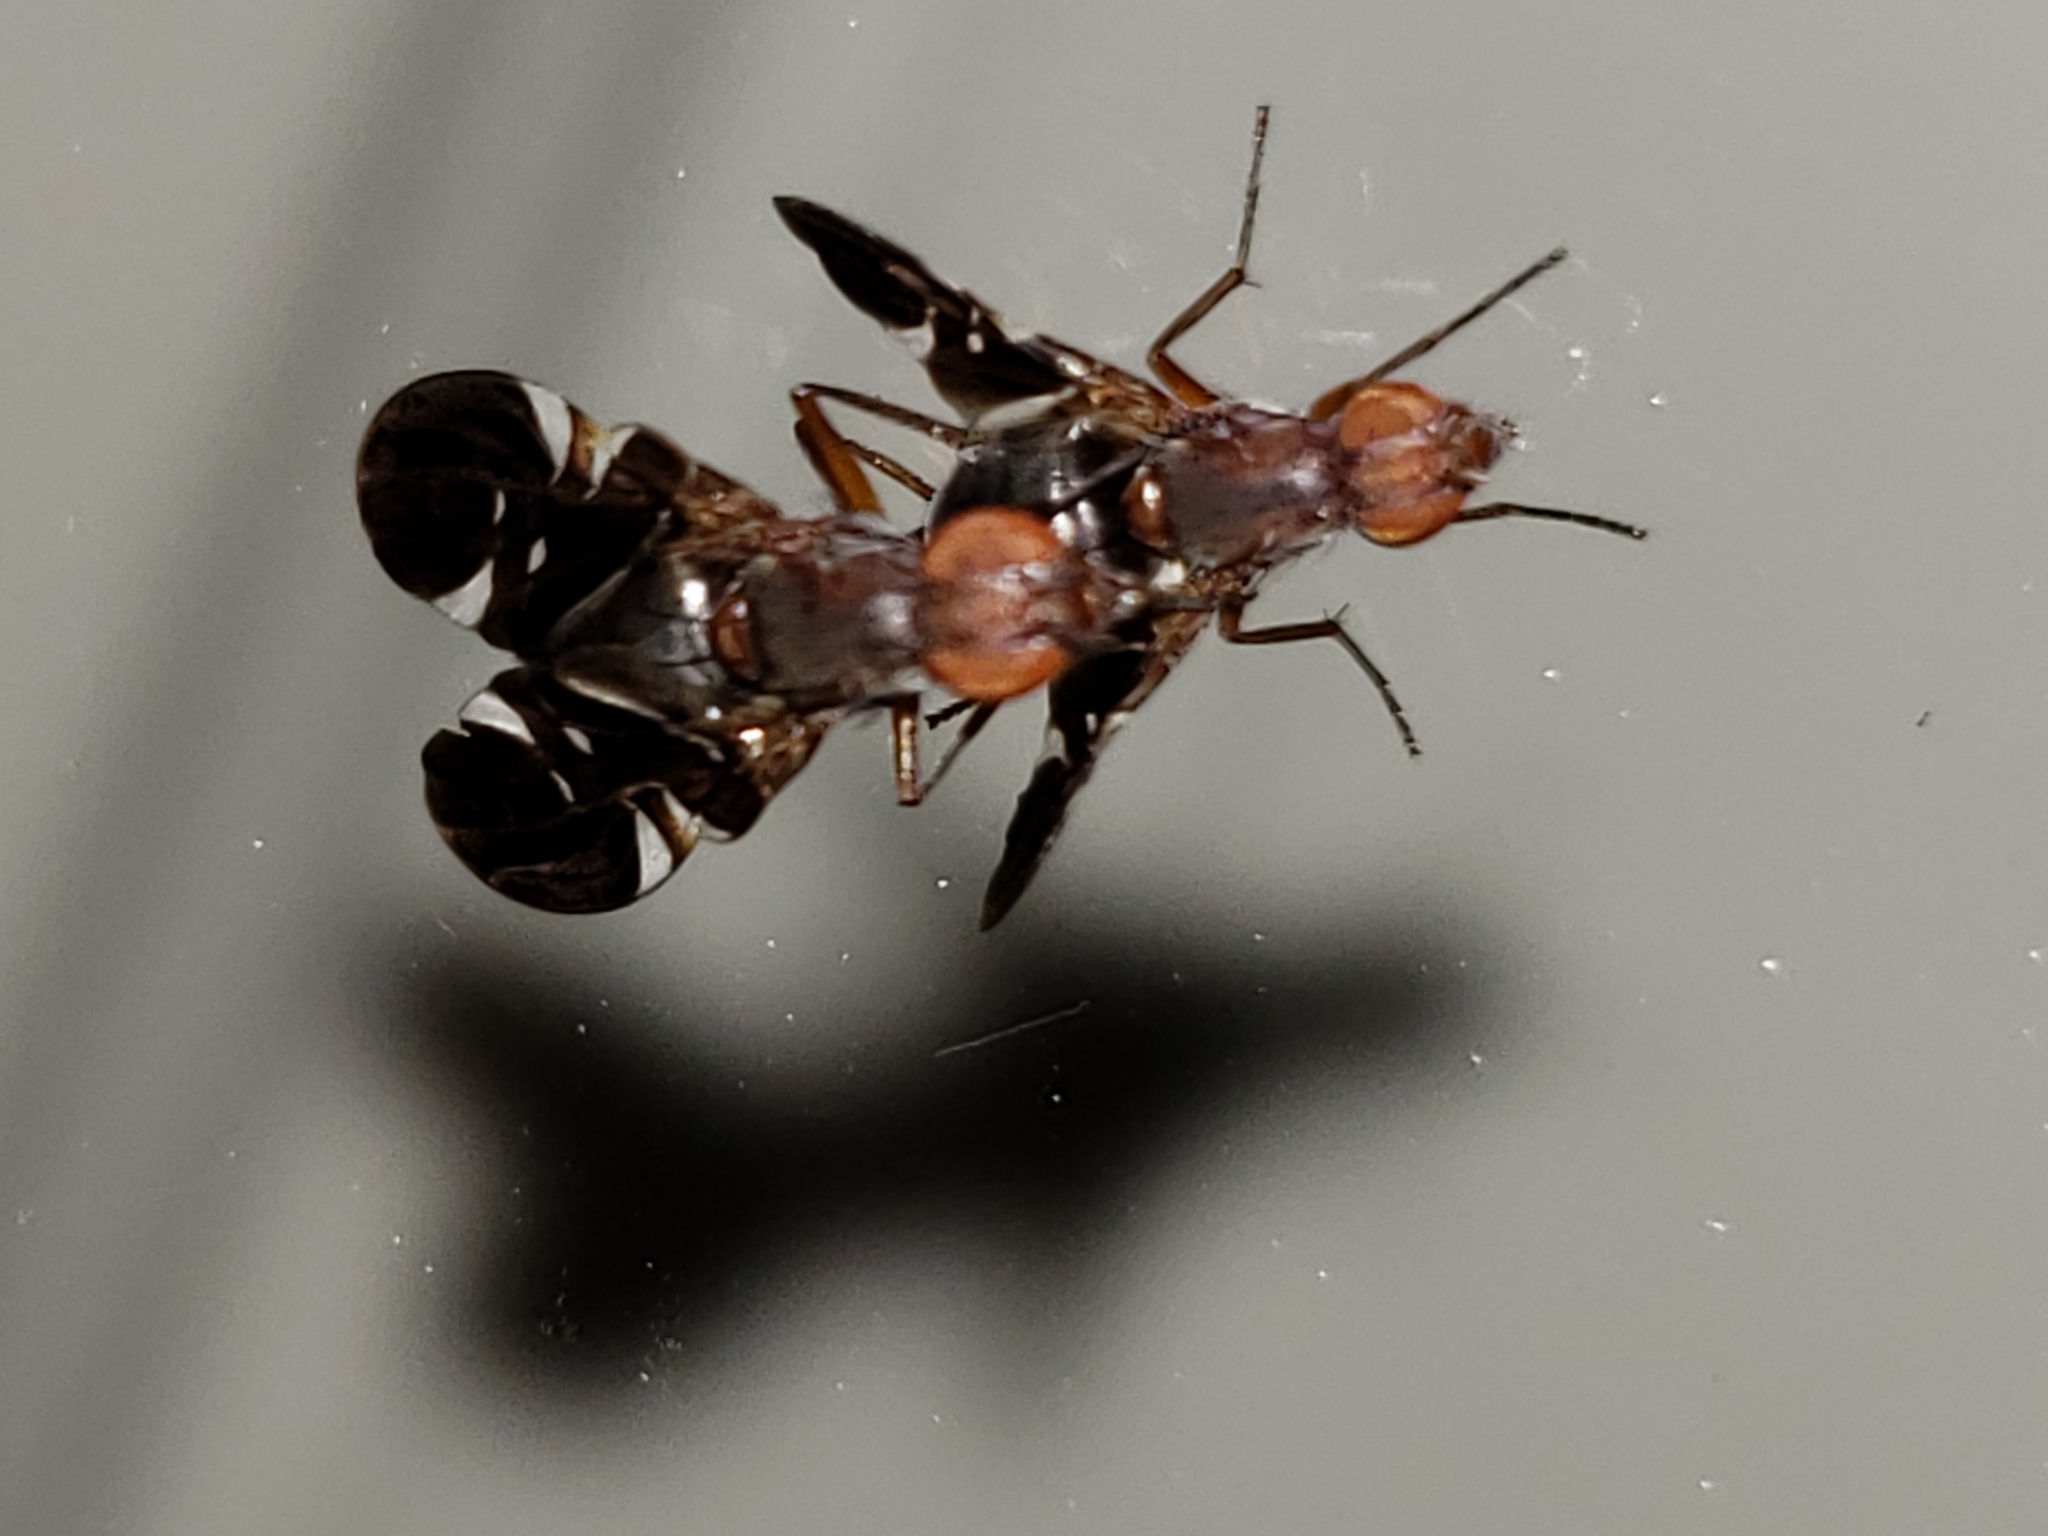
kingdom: Animalia
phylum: Arthropoda
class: Insecta
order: Diptera
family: Ulidiidae
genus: Delphinia
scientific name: Delphinia picta
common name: Common picture-winged fly
